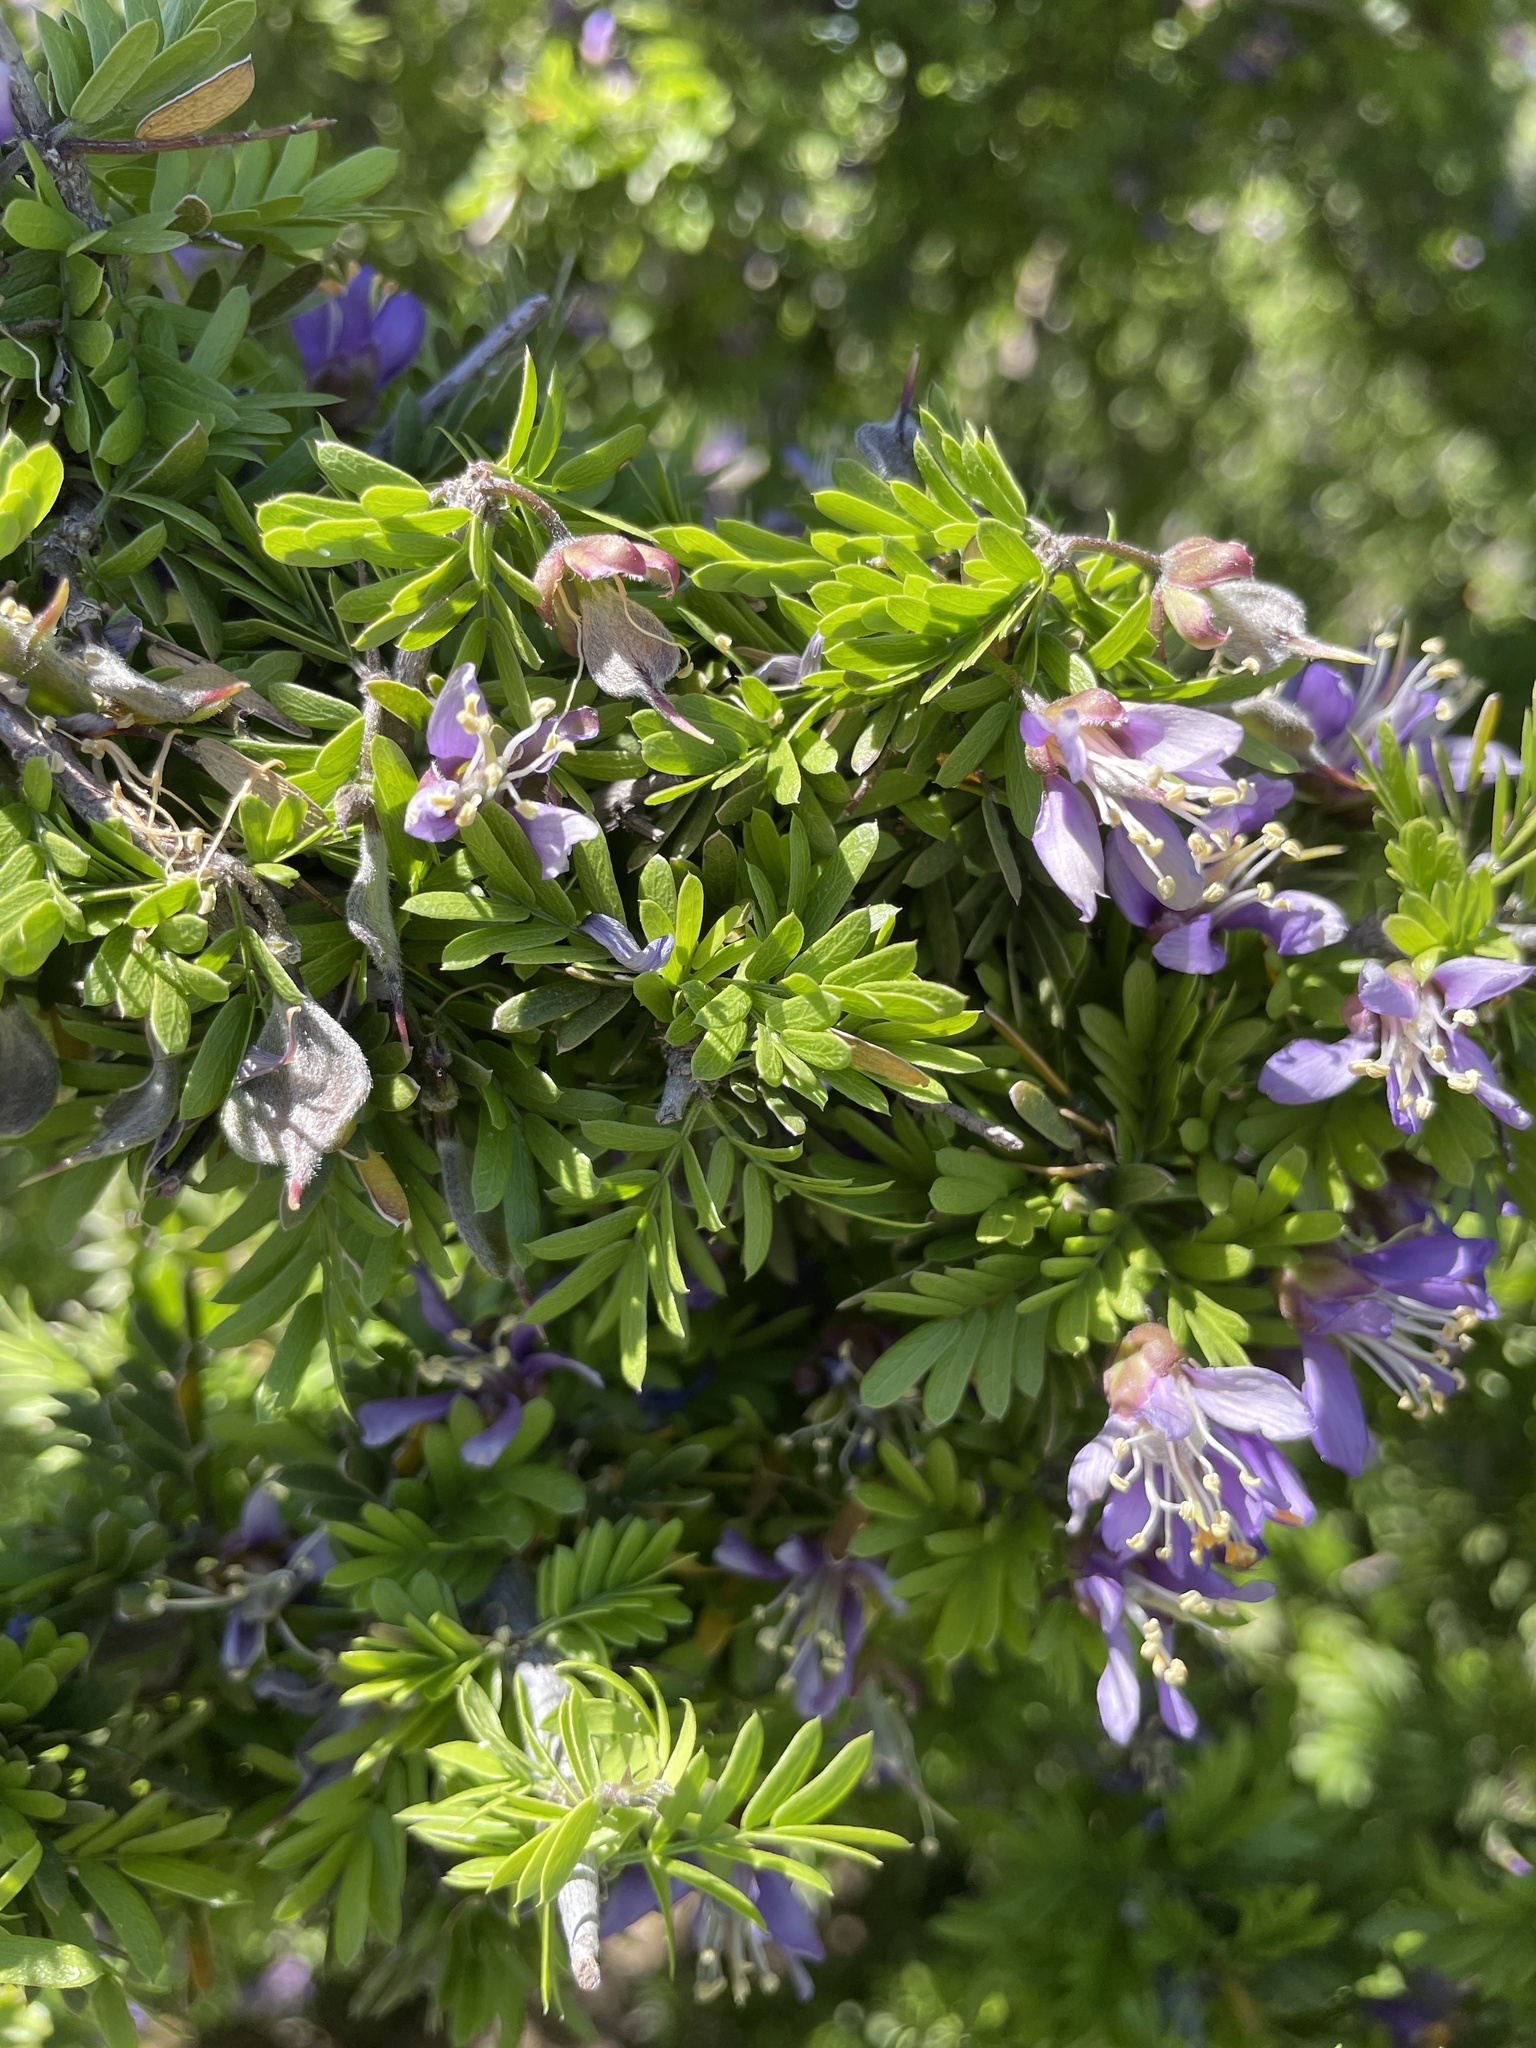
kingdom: Plantae
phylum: Tracheophyta
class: Magnoliopsida
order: Zygophyllales
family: Zygophyllaceae
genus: Porlieria
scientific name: Porlieria angustifolia
